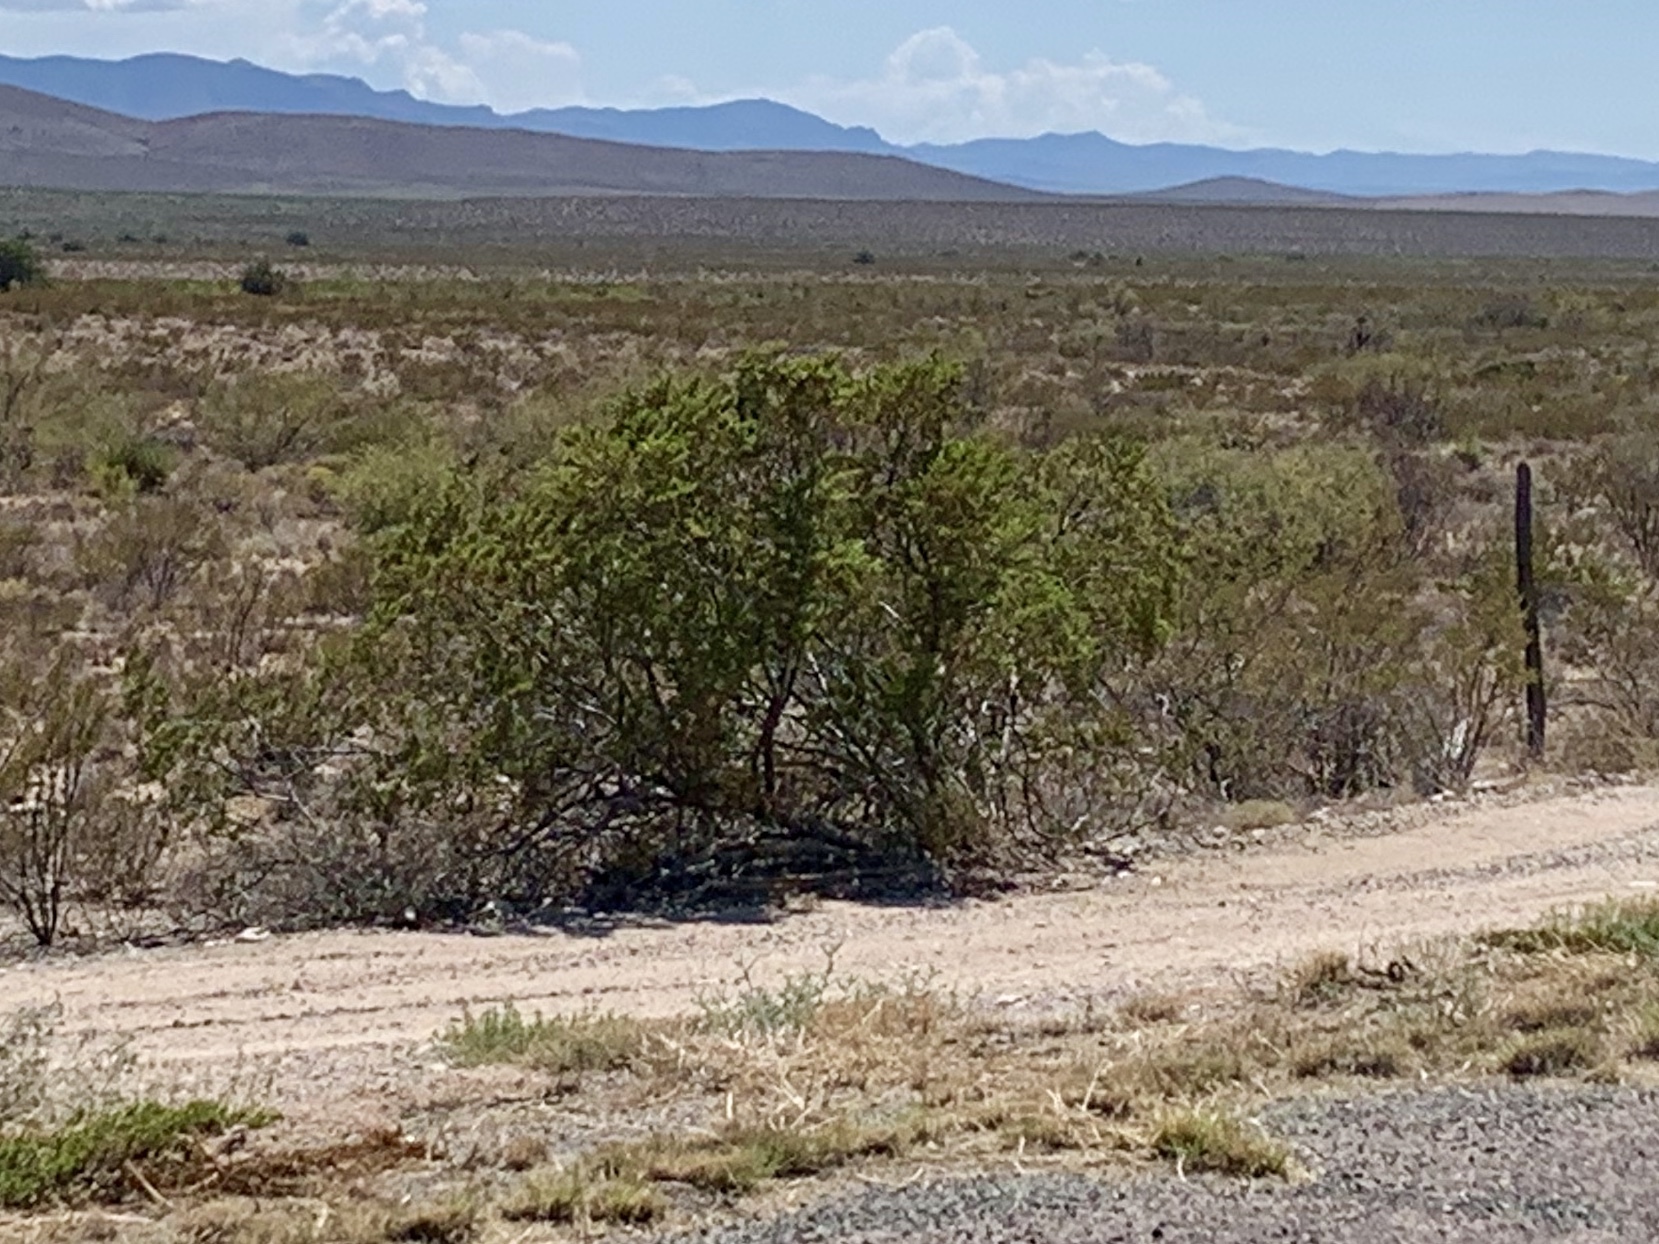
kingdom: Plantae
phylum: Tracheophyta
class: Magnoliopsida
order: Zygophyllales
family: Zygophyllaceae
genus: Larrea
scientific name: Larrea tridentata
